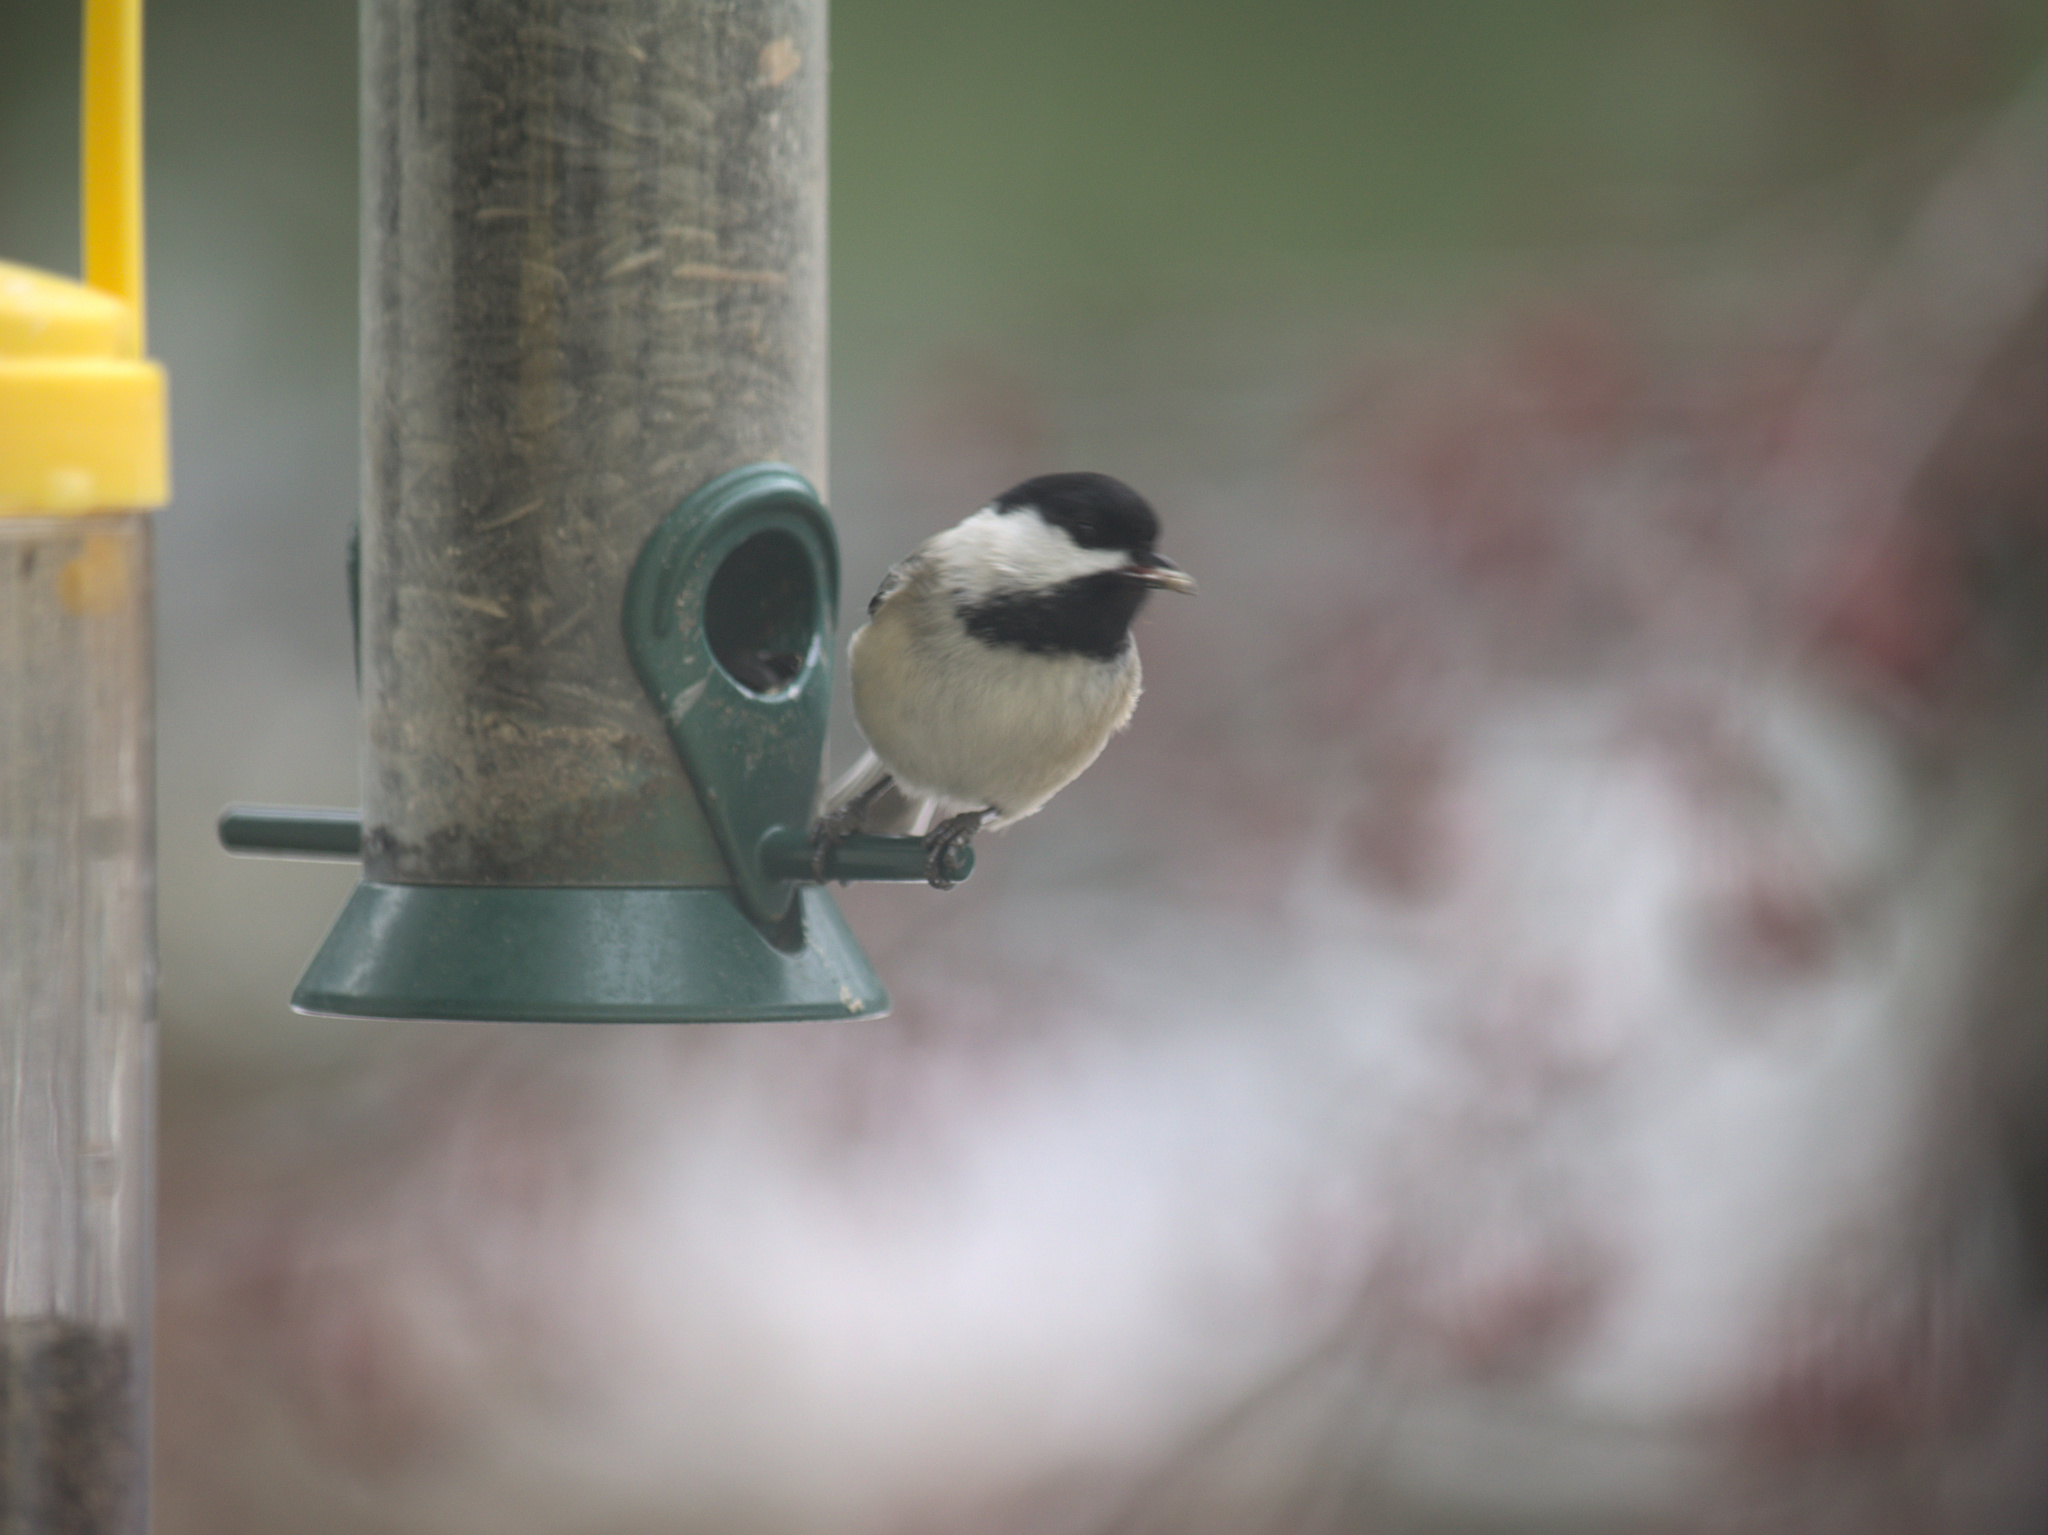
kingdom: Animalia
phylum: Chordata
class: Aves
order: Passeriformes
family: Paridae
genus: Poecile
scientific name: Poecile atricapillus
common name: Black-capped chickadee
